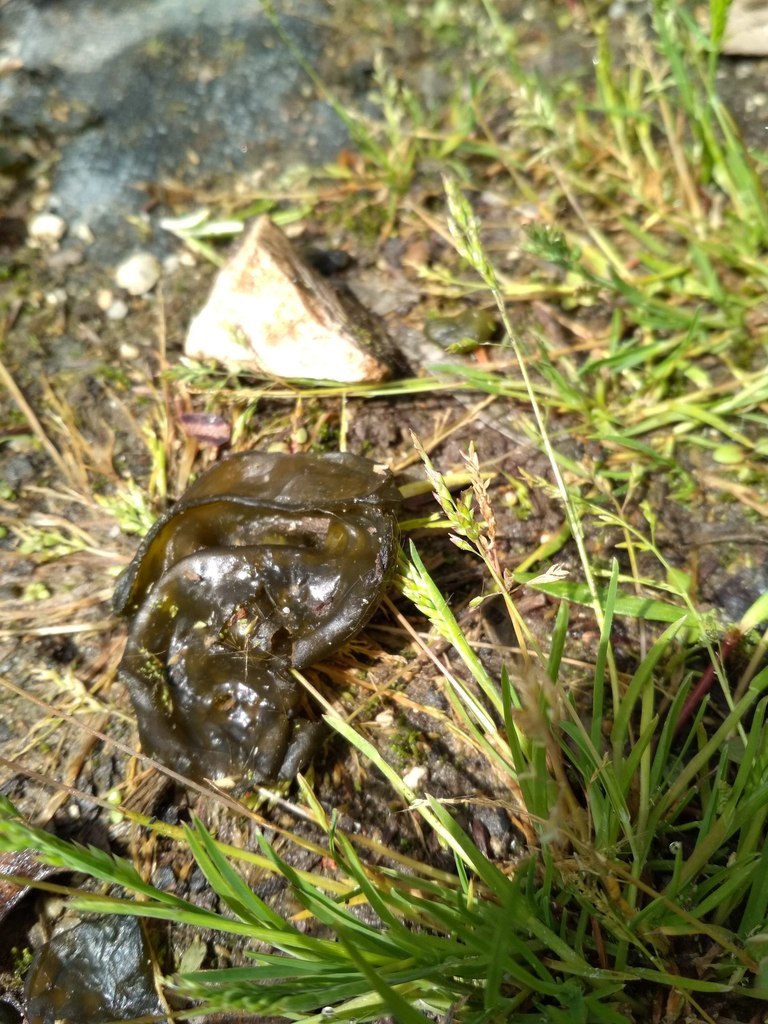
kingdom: Bacteria
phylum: Cyanobacteria
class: Cyanobacteriia
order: Cyanobacteriales
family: Nostocaceae
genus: Nostoc
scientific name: Nostoc commune
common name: Star jelly
